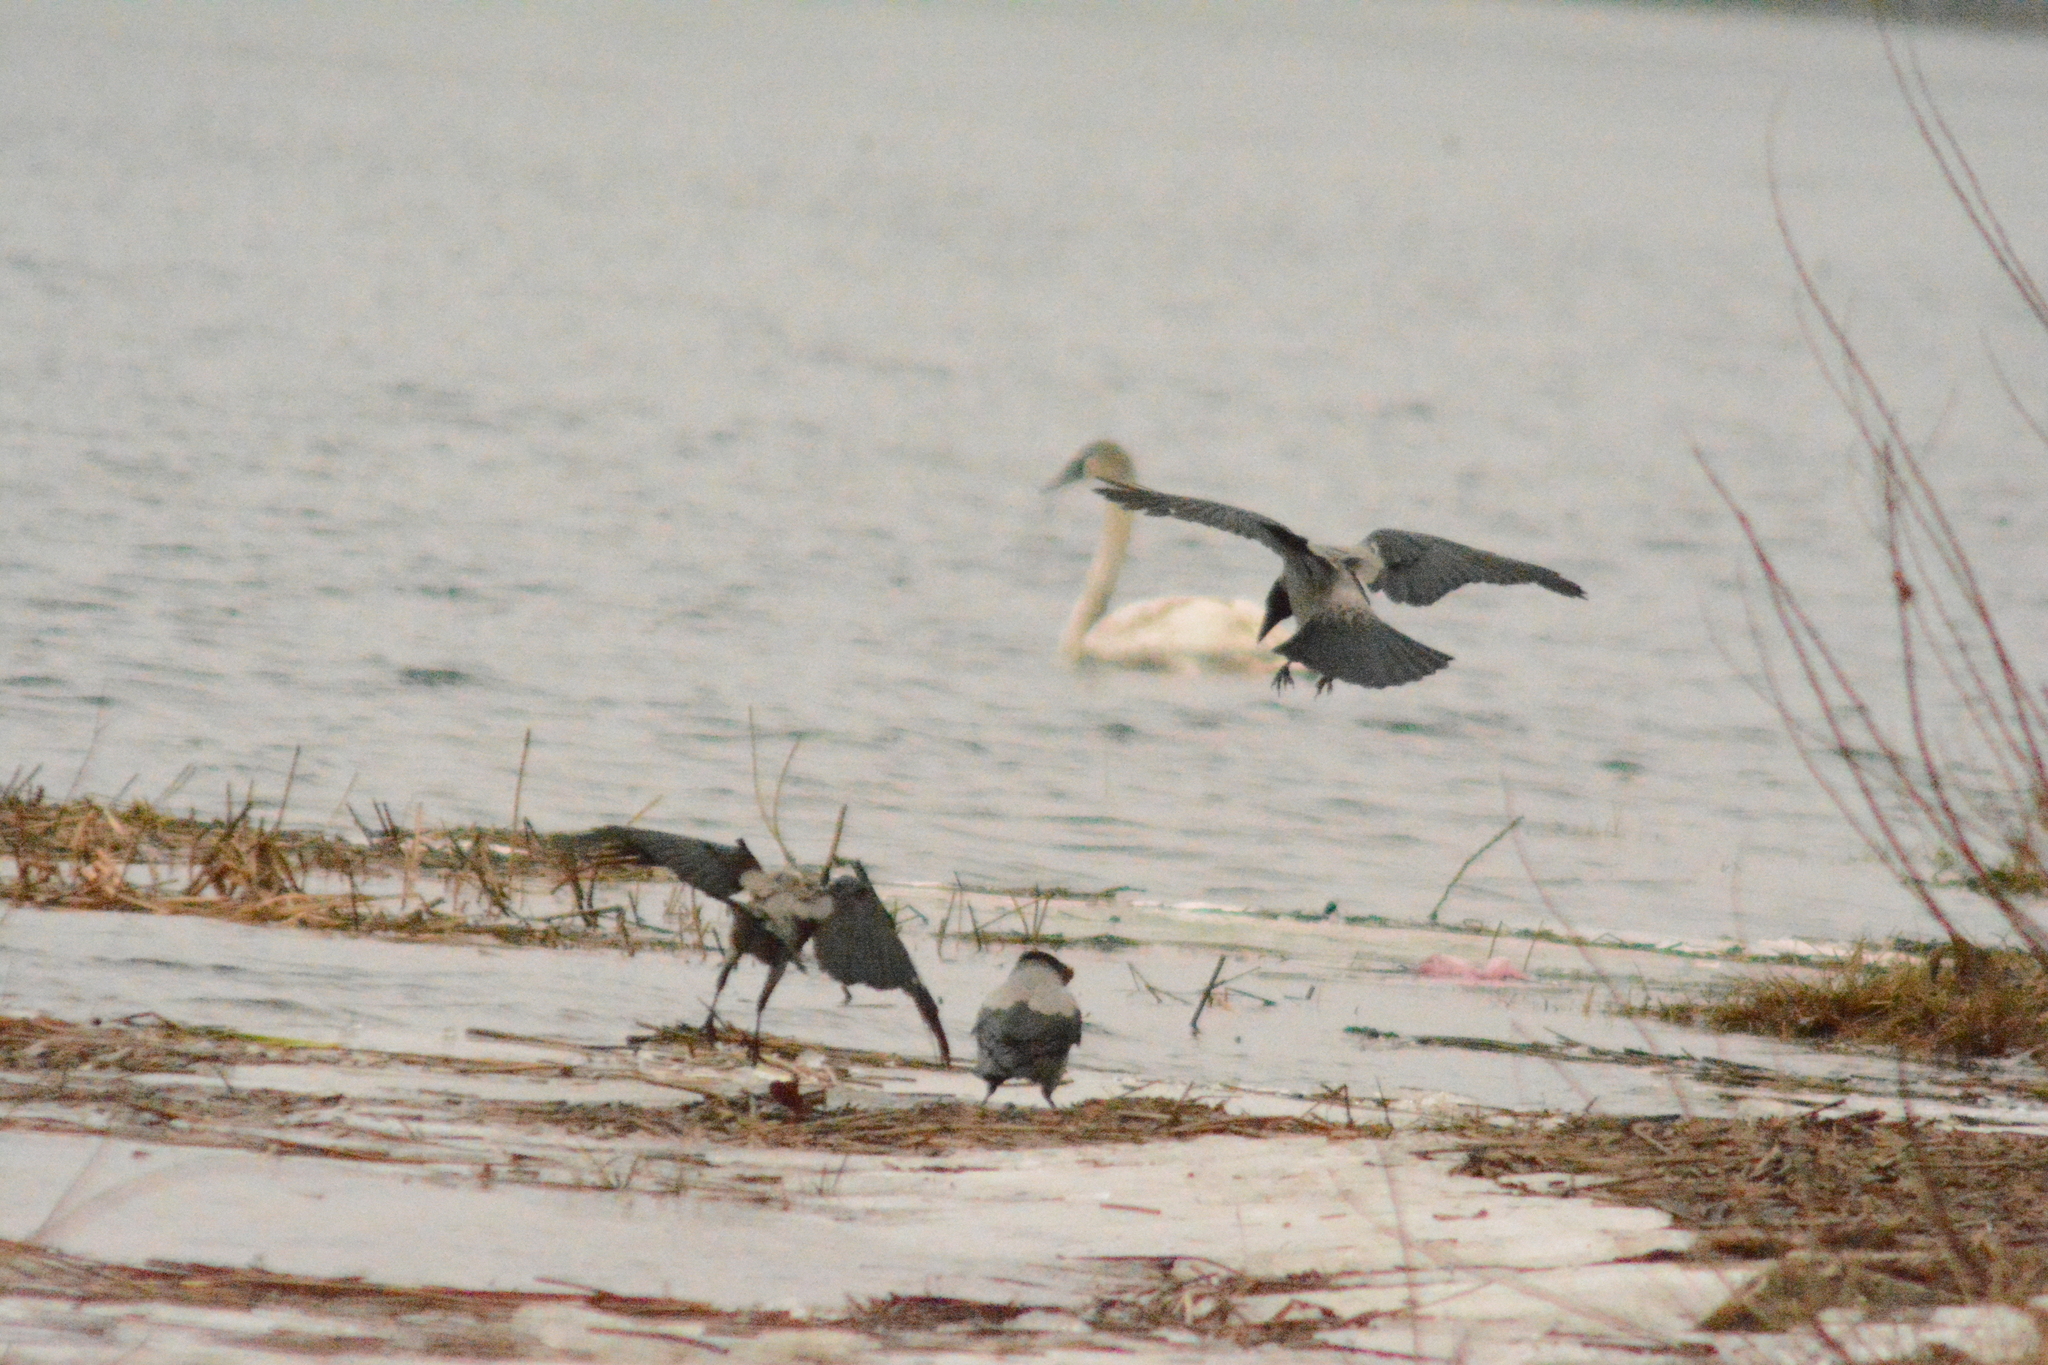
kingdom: Animalia
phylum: Chordata
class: Aves
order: Passeriformes
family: Corvidae
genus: Corvus
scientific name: Corvus cornix
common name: Hooded crow
